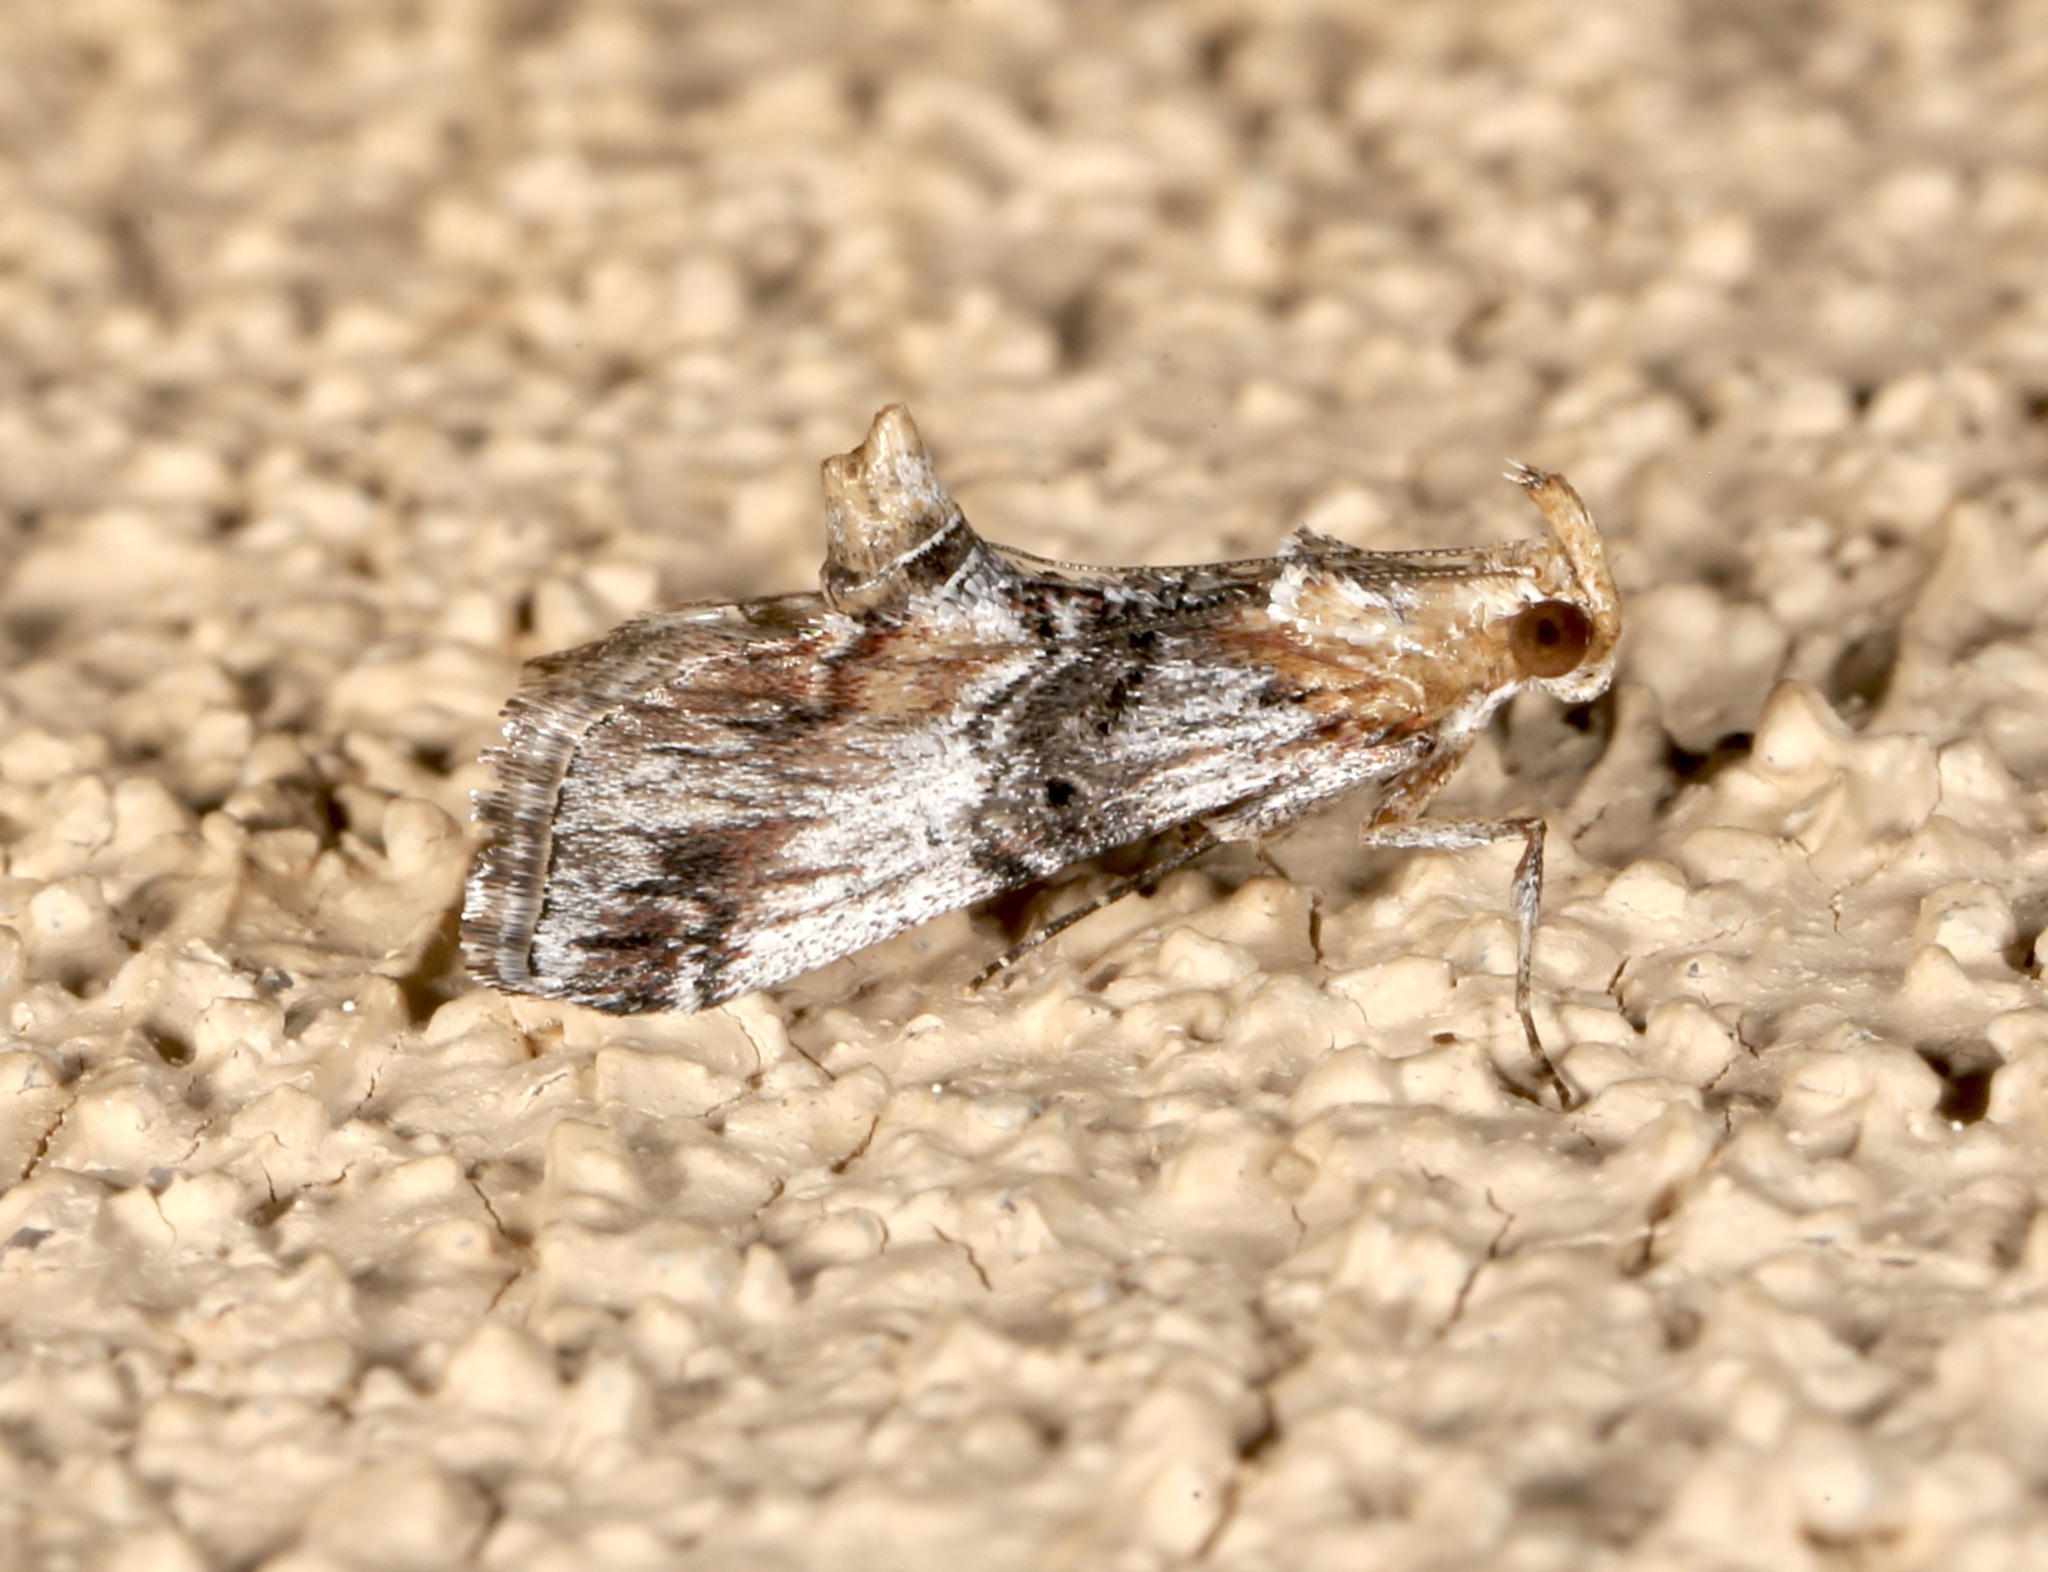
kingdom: Animalia
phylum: Arthropoda
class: Insecta
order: Lepidoptera
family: Pyralidae
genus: Toripalpus
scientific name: Toripalpus trabalis
